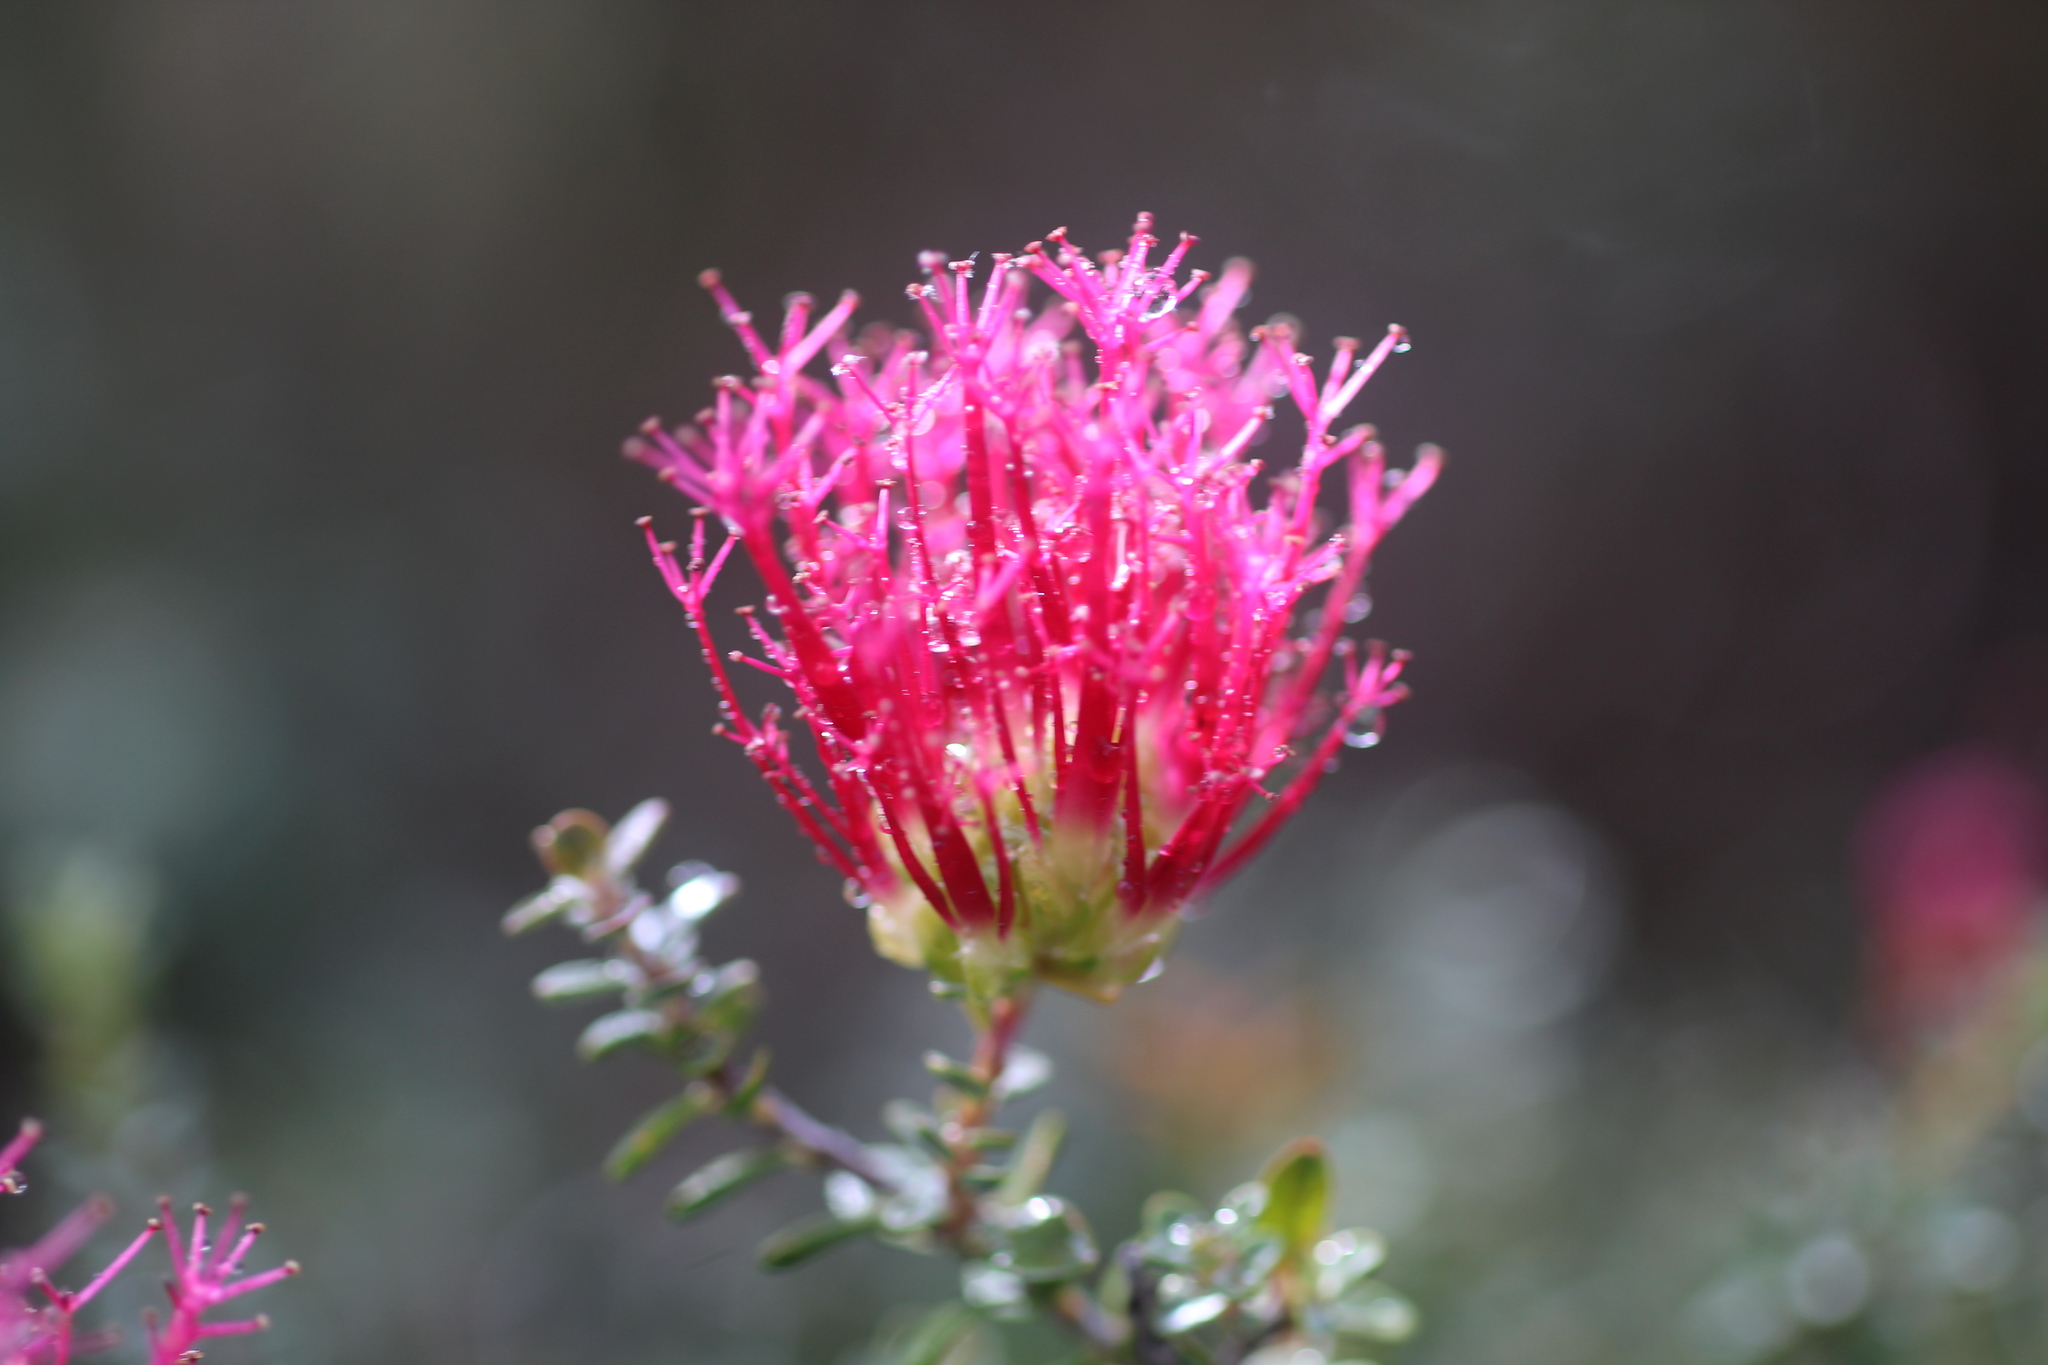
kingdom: Plantae
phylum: Tracheophyta
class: Magnoliopsida
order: Myrtales
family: Myrtaceae
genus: Melaleuca
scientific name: Melaleuca cyrtodonta
